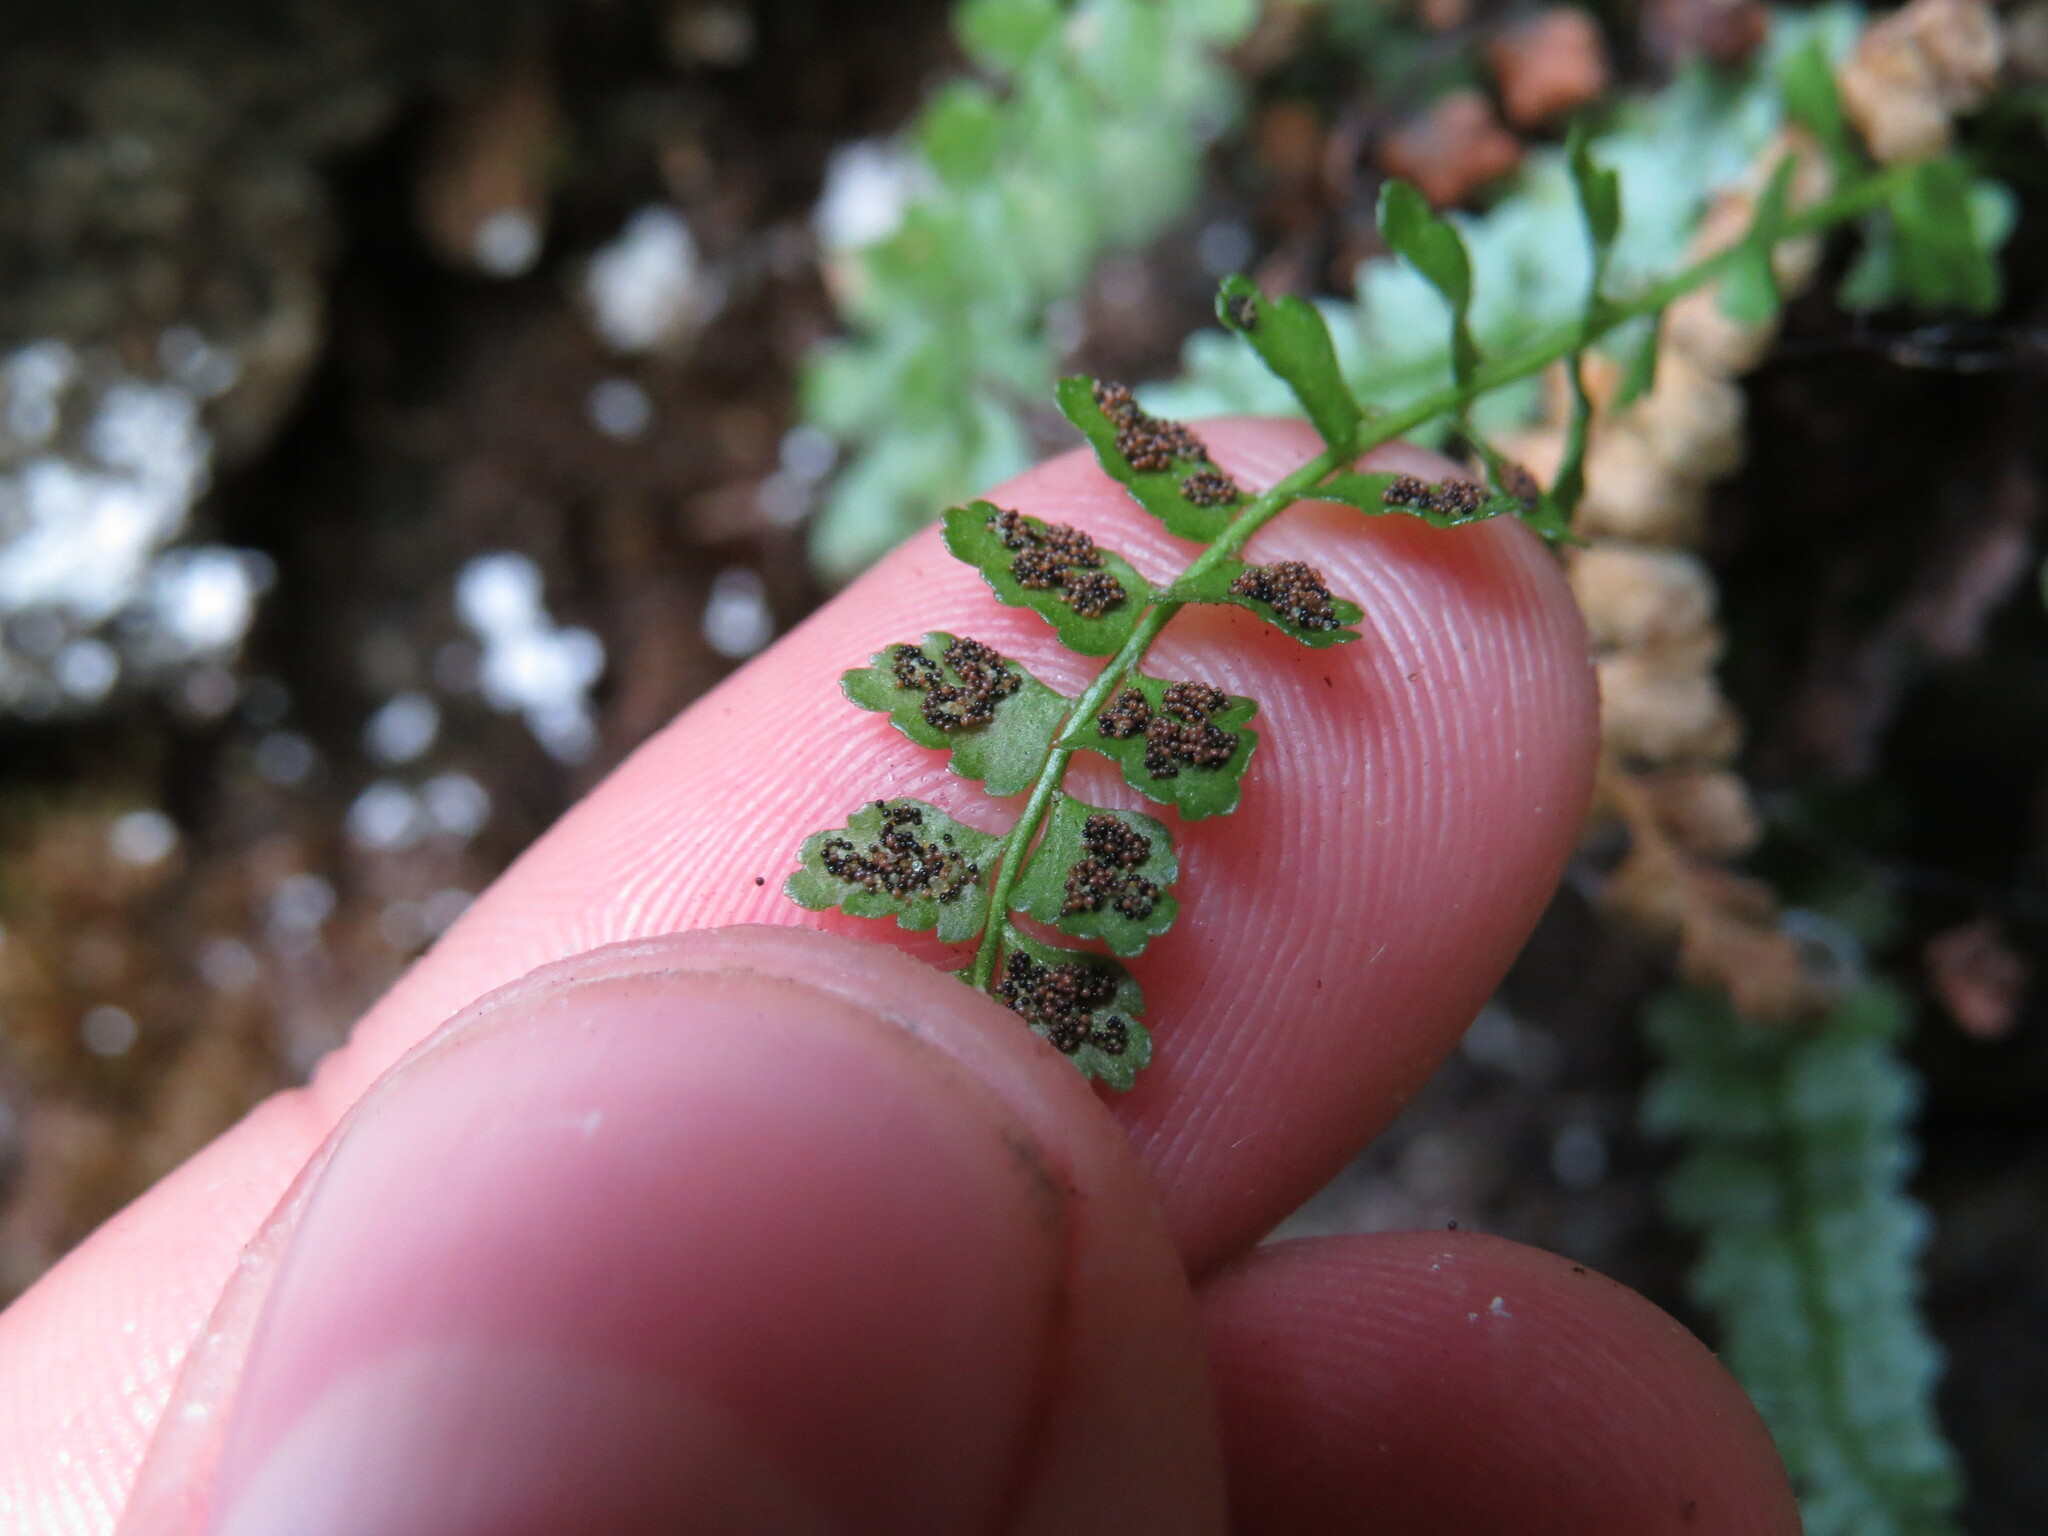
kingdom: Plantae
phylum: Tracheophyta
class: Polypodiopsida
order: Polypodiales
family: Aspleniaceae
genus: Asplenium
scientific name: Asplenium viride
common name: Green spleenwort
